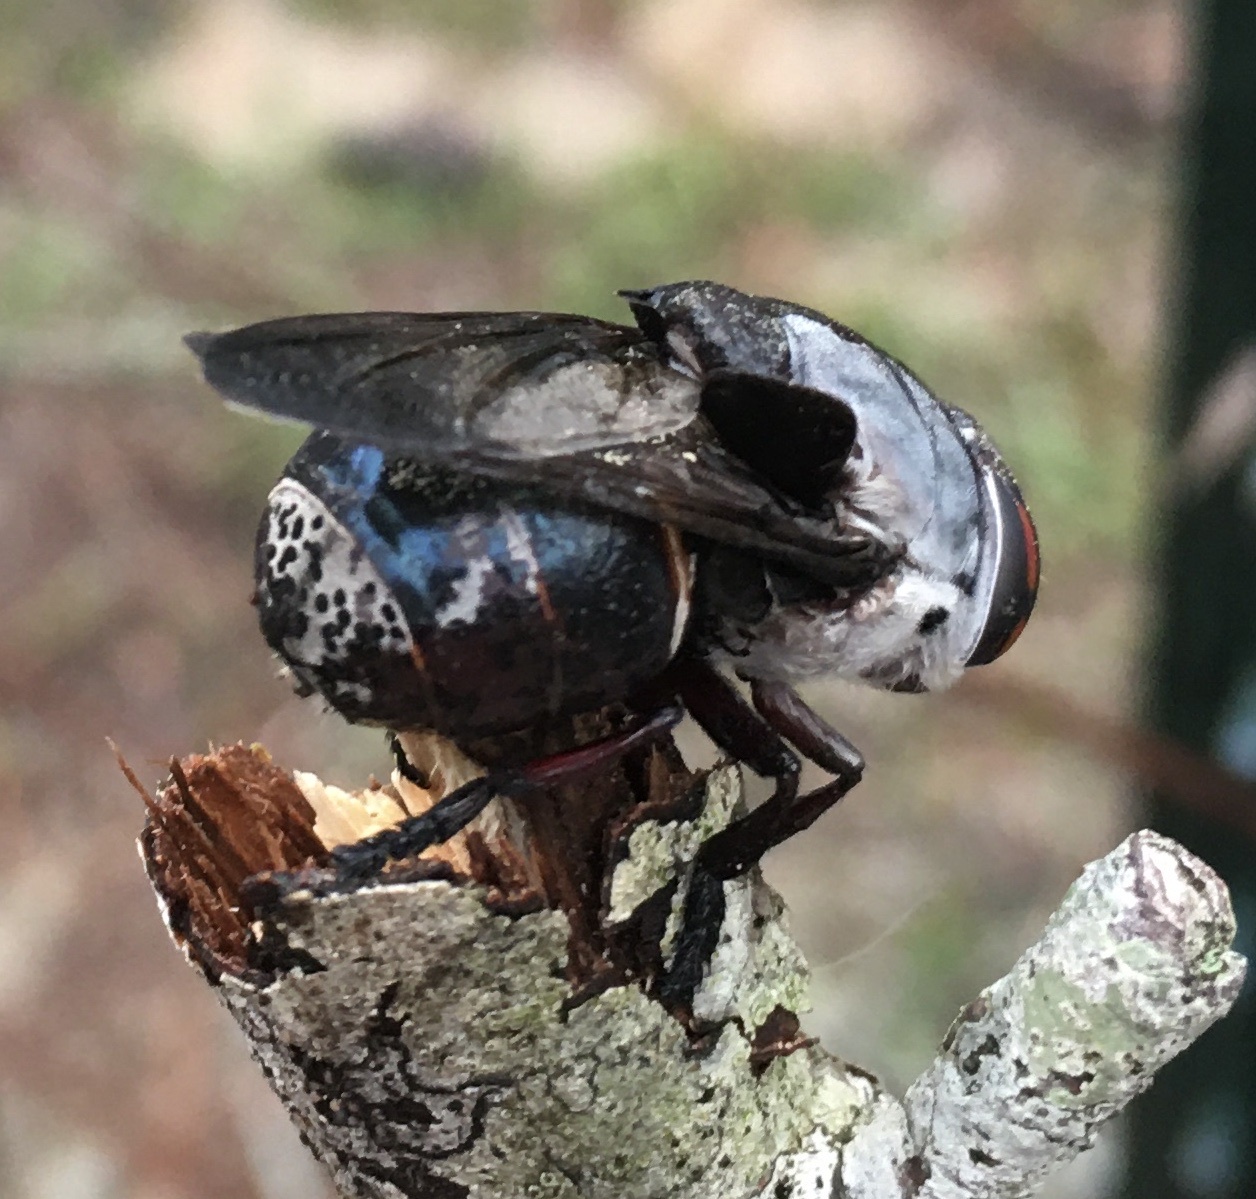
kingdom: Animalia
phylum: Arthropoda
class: Insecta
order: Diptera
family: Oestridae
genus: Cuterebra
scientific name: Cuterebra buccata
